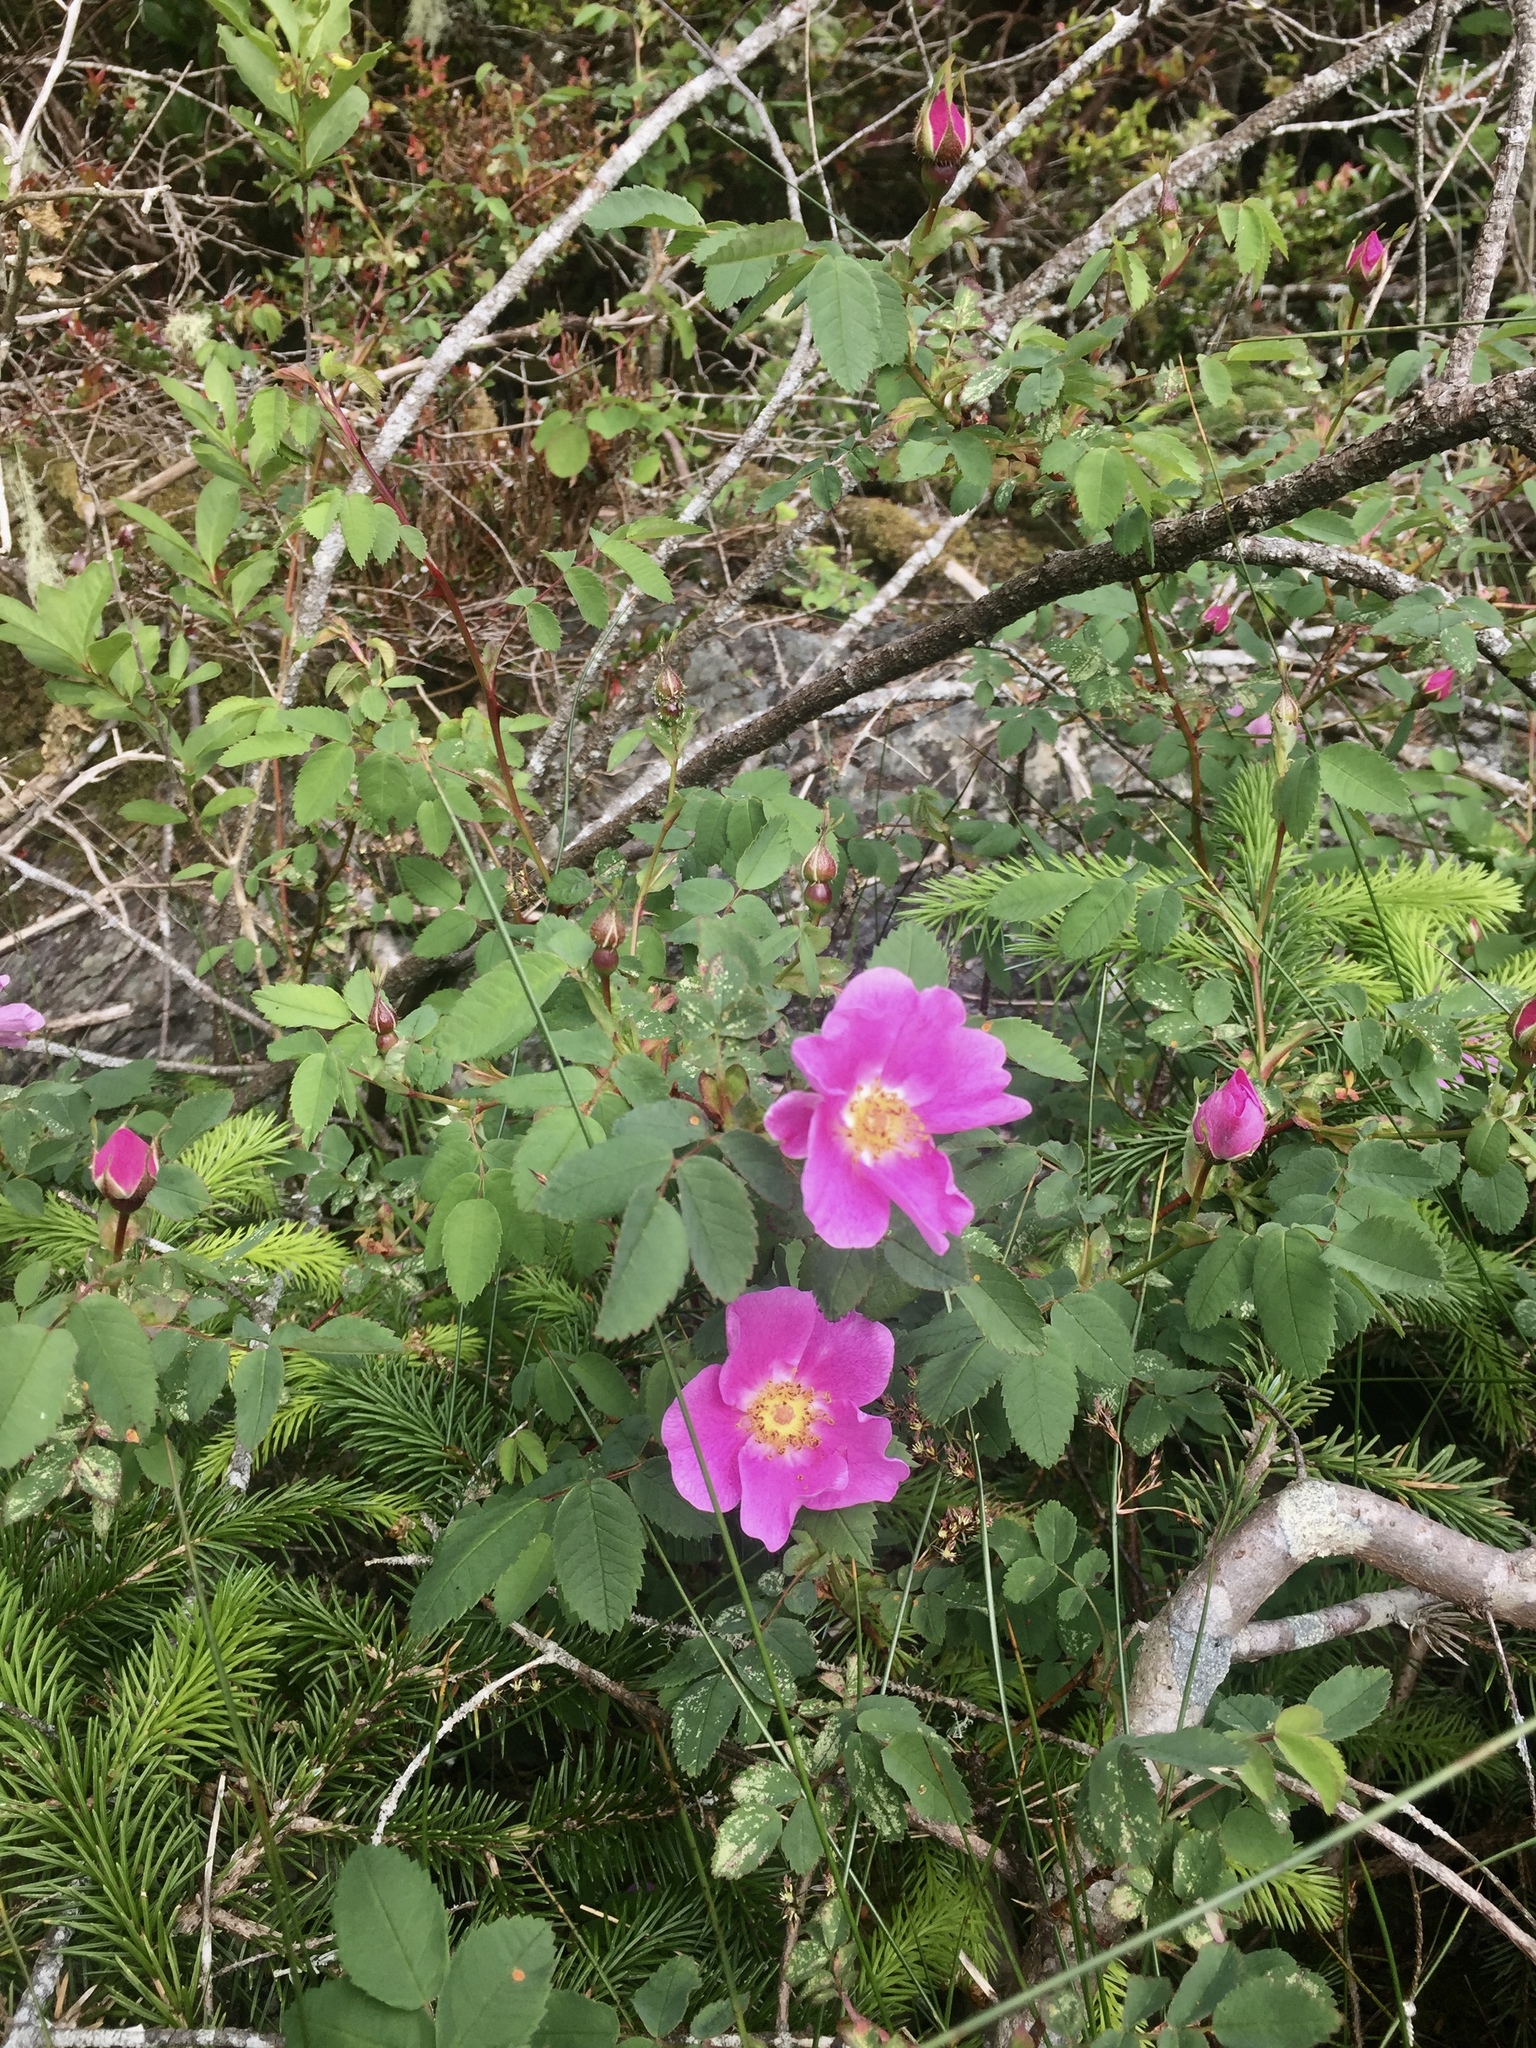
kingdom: Plantae
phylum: Tracheophyta
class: Magnoliopsida
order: Rosales
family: Rosaceae
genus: Rosa
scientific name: Rosa nutkana
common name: Nootka rose
